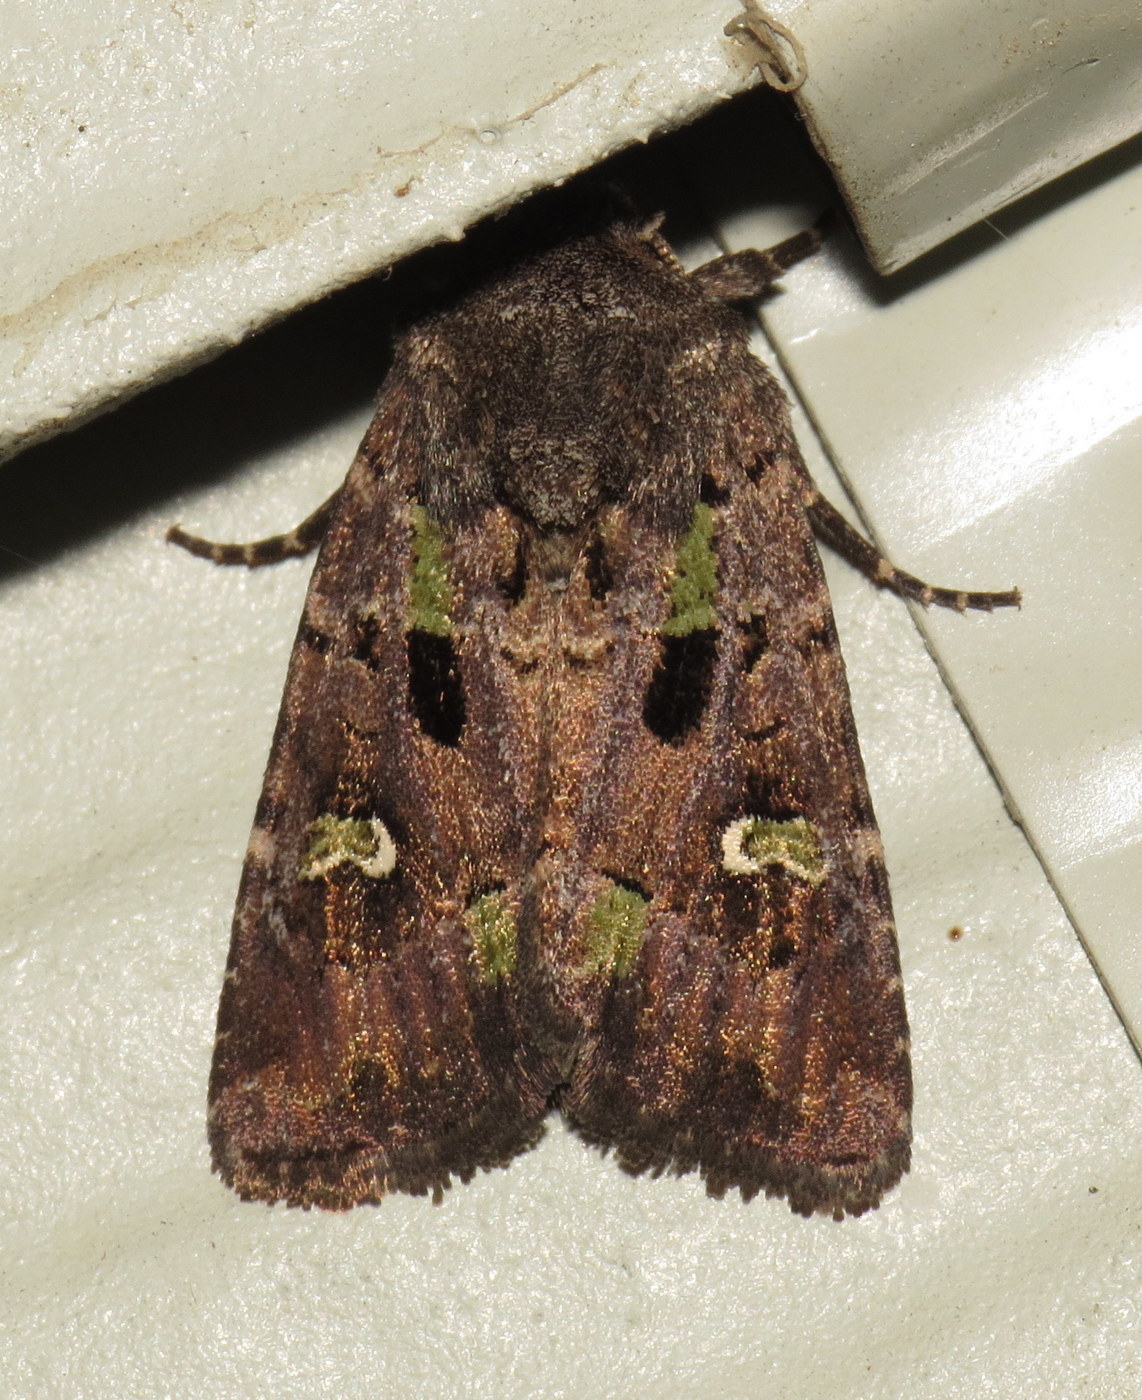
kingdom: Animalia
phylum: Arthropoda
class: Insecta
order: Lepidoptera
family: Noctuidae
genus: Lacinipolia
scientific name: Lacinipolia renigera
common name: Kidney-spotted minor
